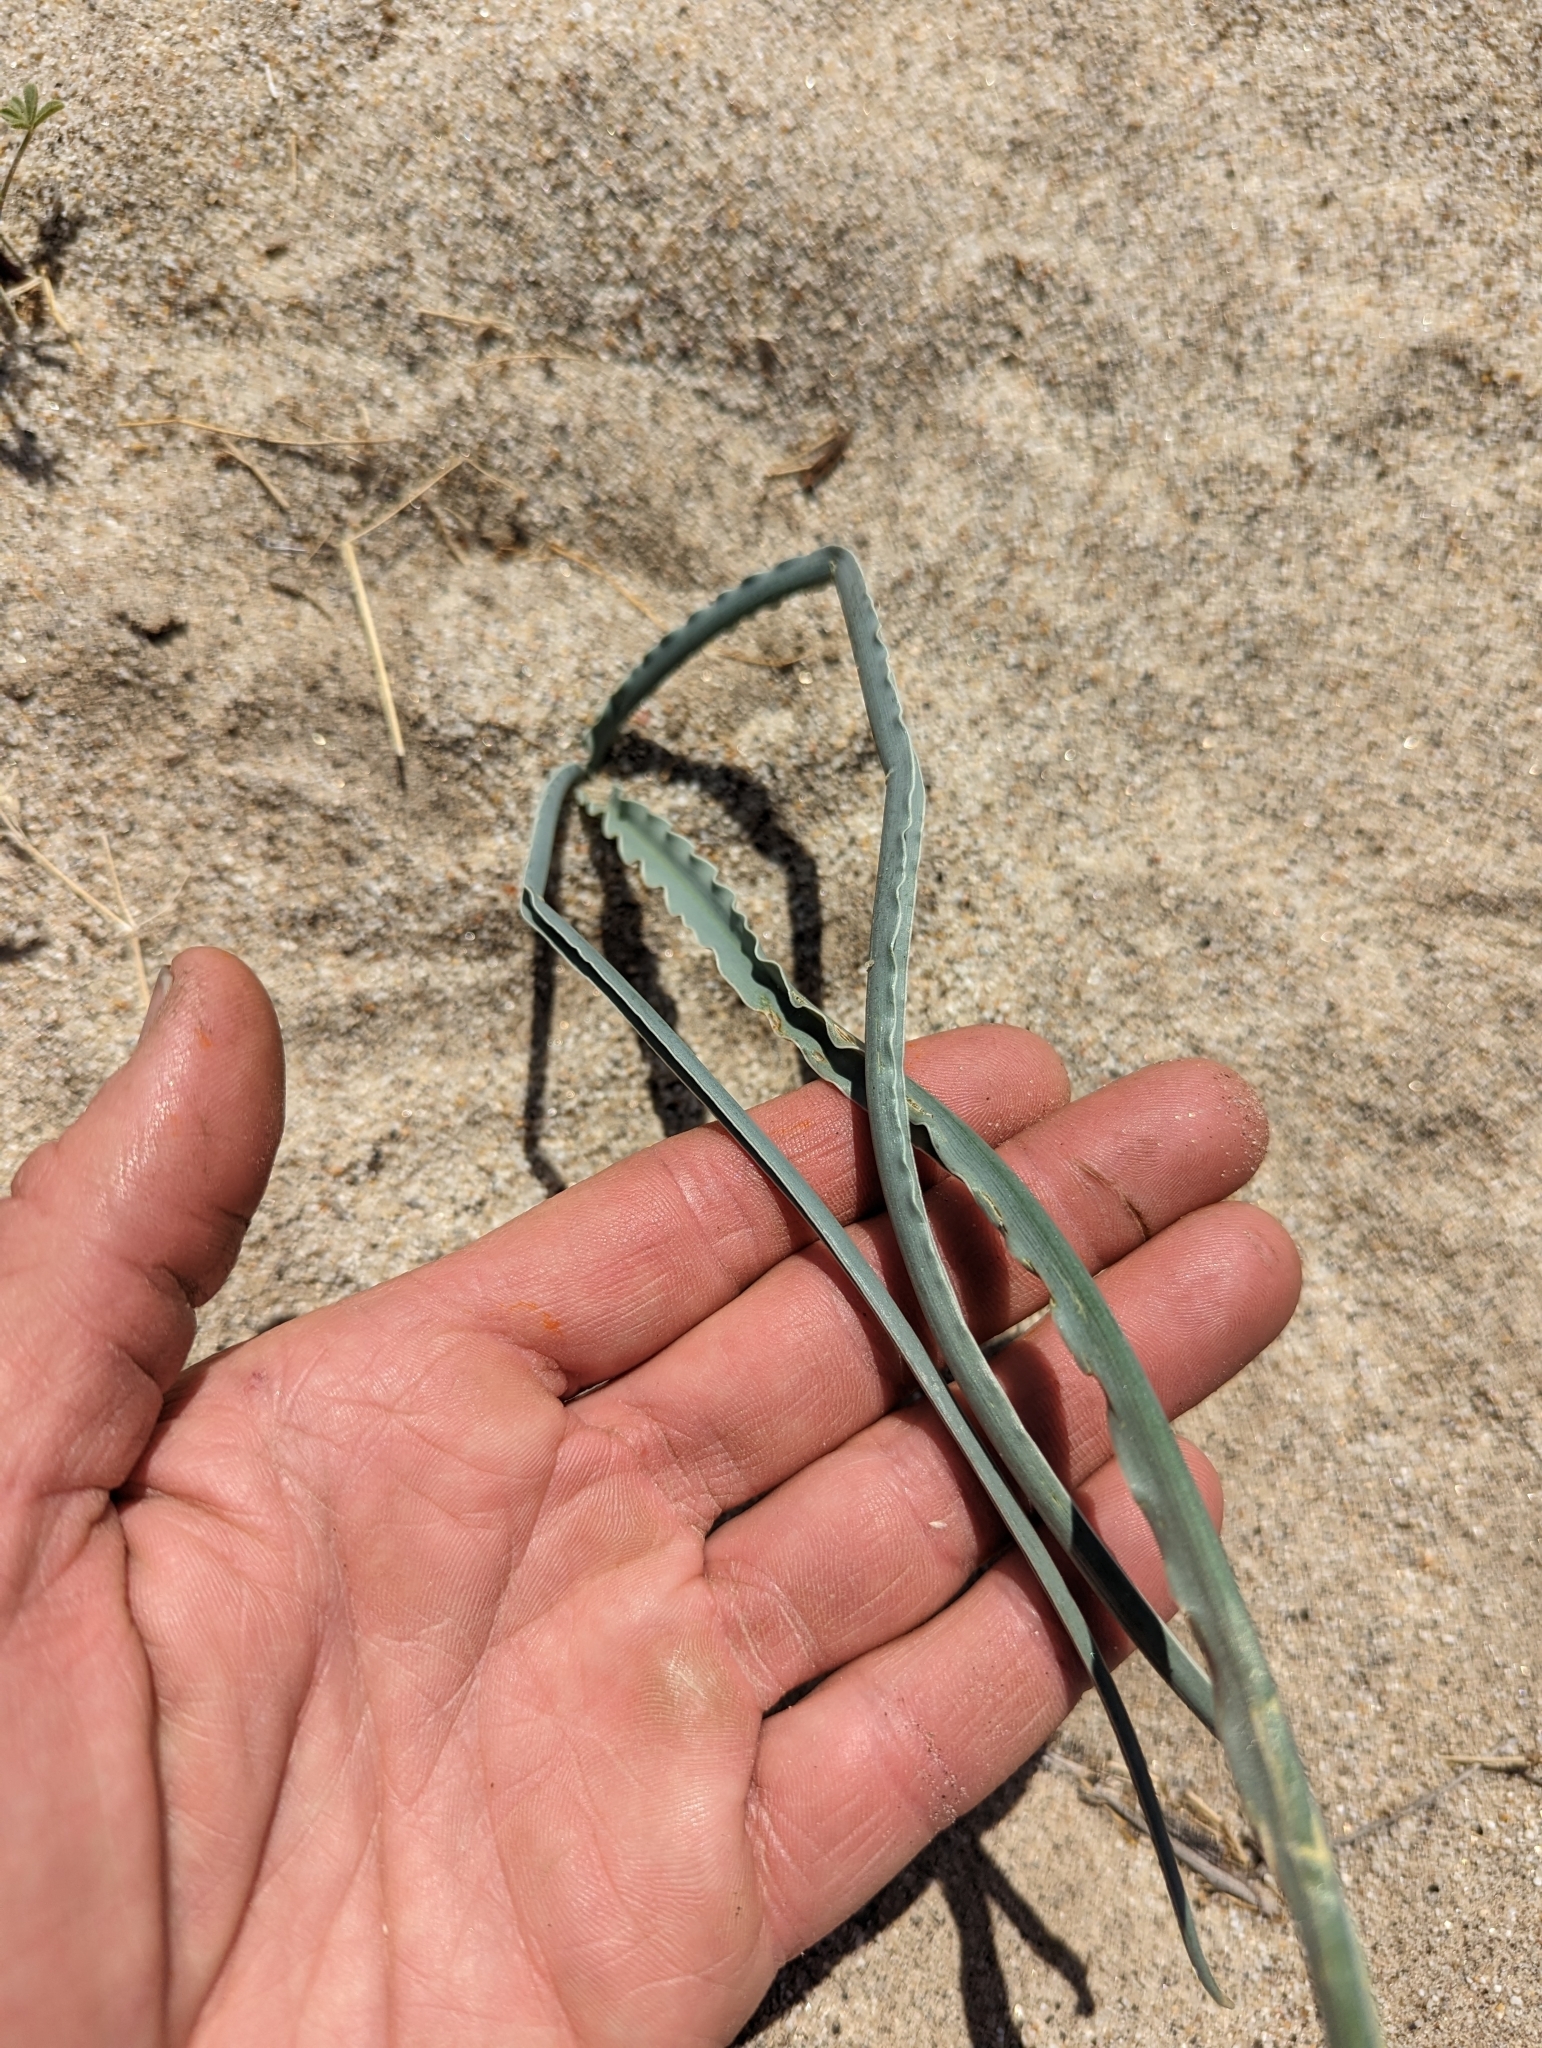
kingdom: Plantae
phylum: Tracheophyta
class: Liliopsida
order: Asparagales
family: Asparagaceae
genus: Hesperocallis
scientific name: Hesperocallis undulata
